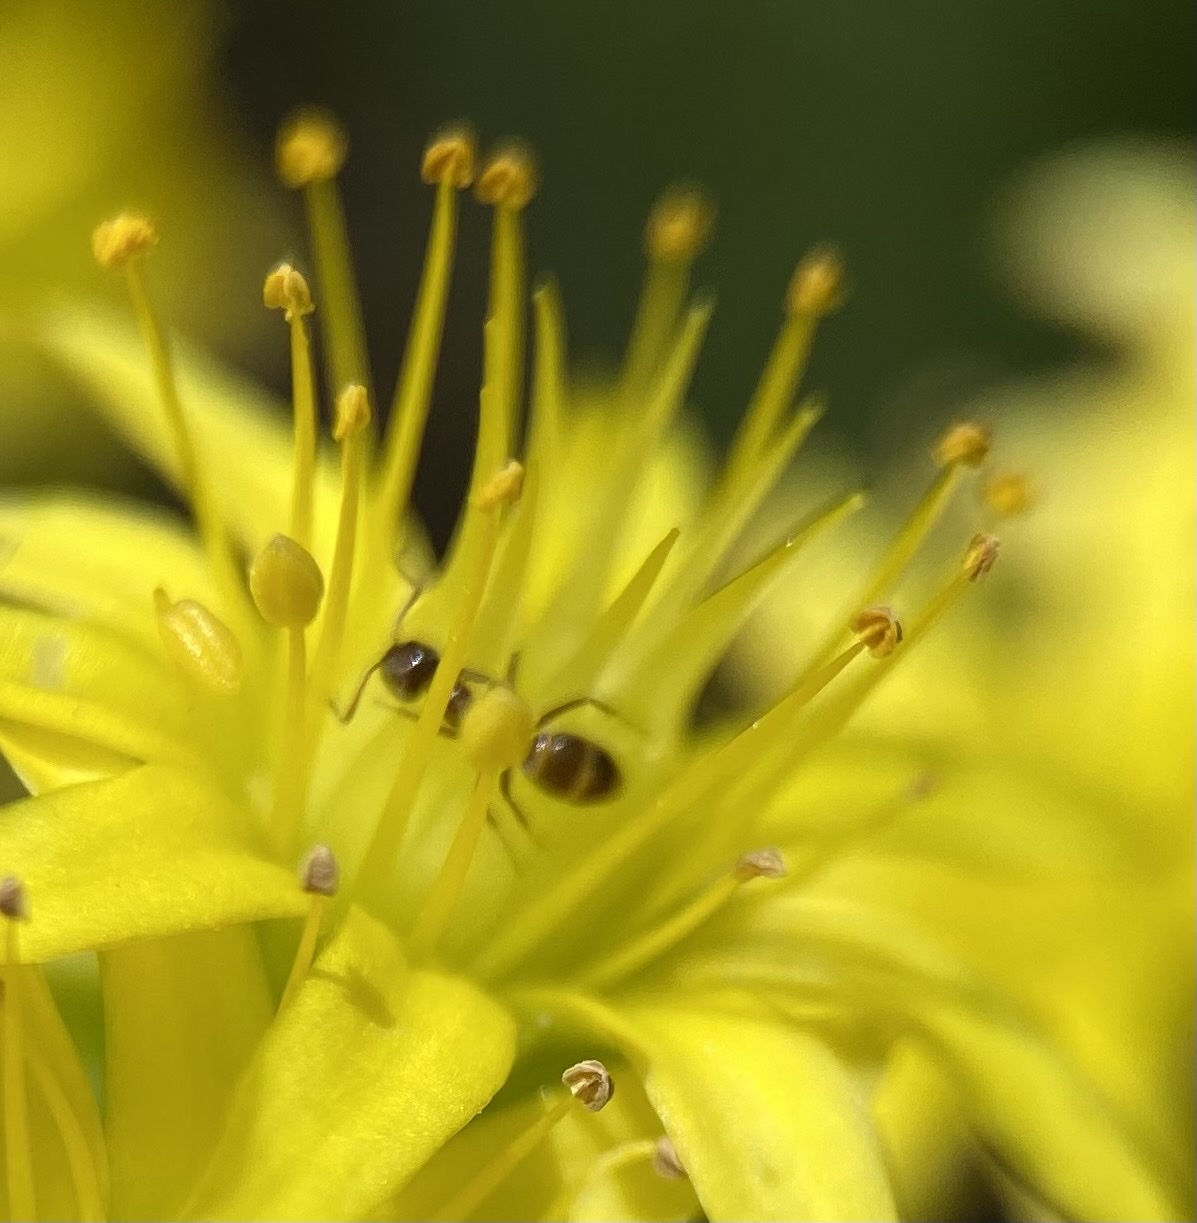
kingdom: Animalia
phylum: Arthropoda
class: Insecta
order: Hymenoptera
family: Formicidae
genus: Linepithema
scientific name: Linepithema humile
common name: Argentine ant
